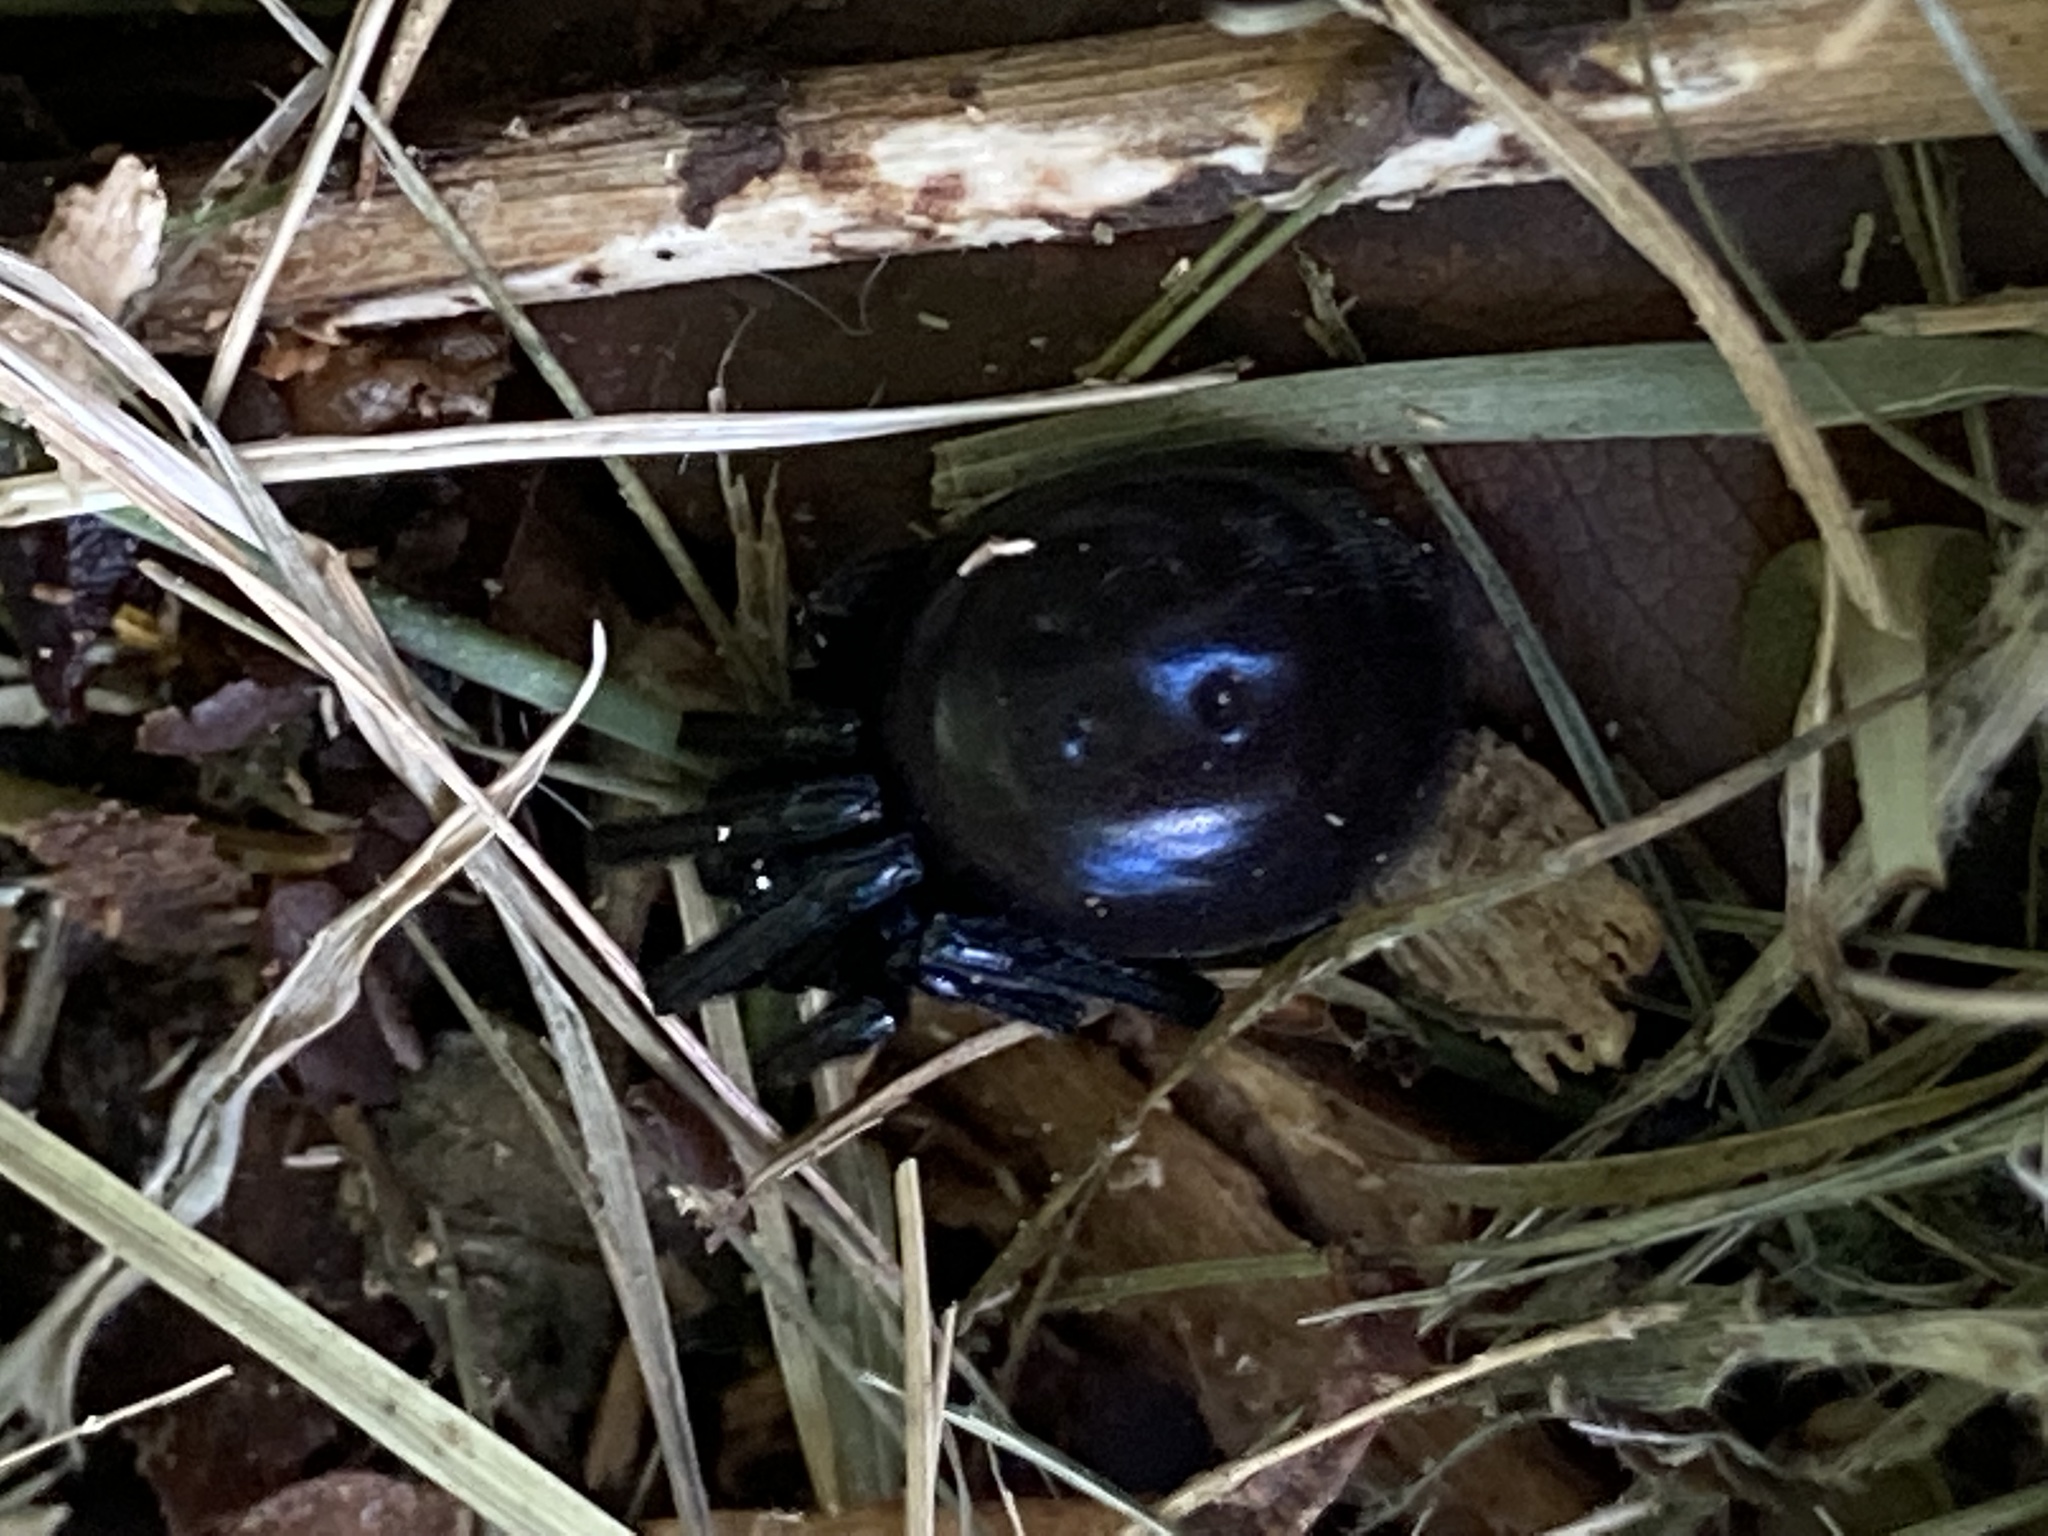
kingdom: Animalia
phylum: Arthropoda
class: Arachnida
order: Araneae
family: Theridiidae
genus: Steatoda
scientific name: Steatoda capensis
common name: Cobweb weaver
